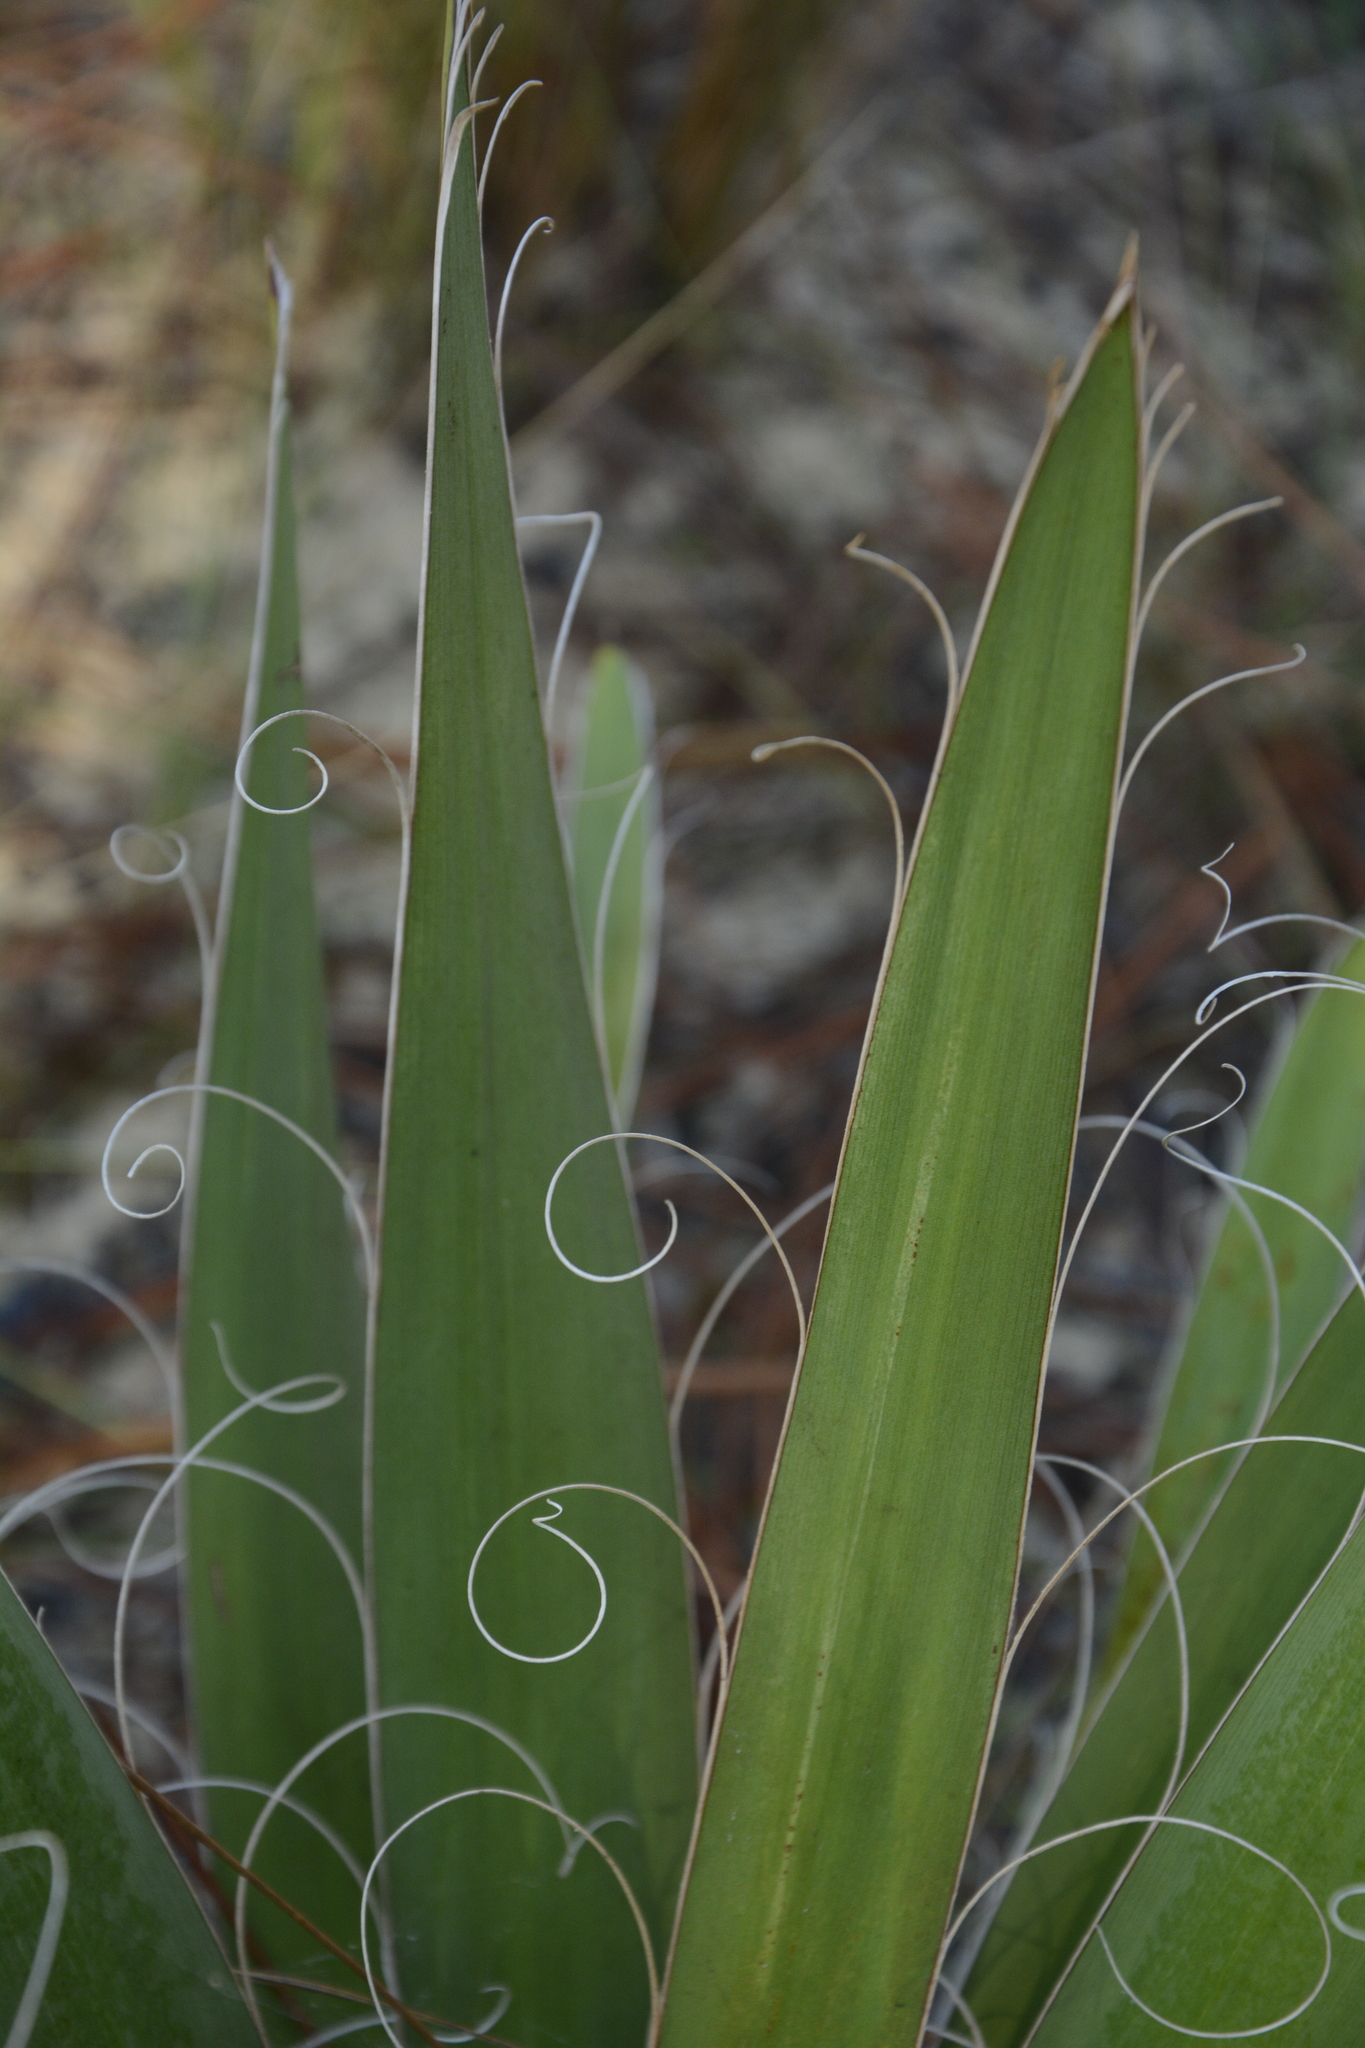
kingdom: Plantae
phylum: Tracheophyta
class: Liliopsida
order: Asparagales
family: Asparagaceae
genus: Yucca
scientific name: Yucca filamentosa
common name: Adam's-needle
